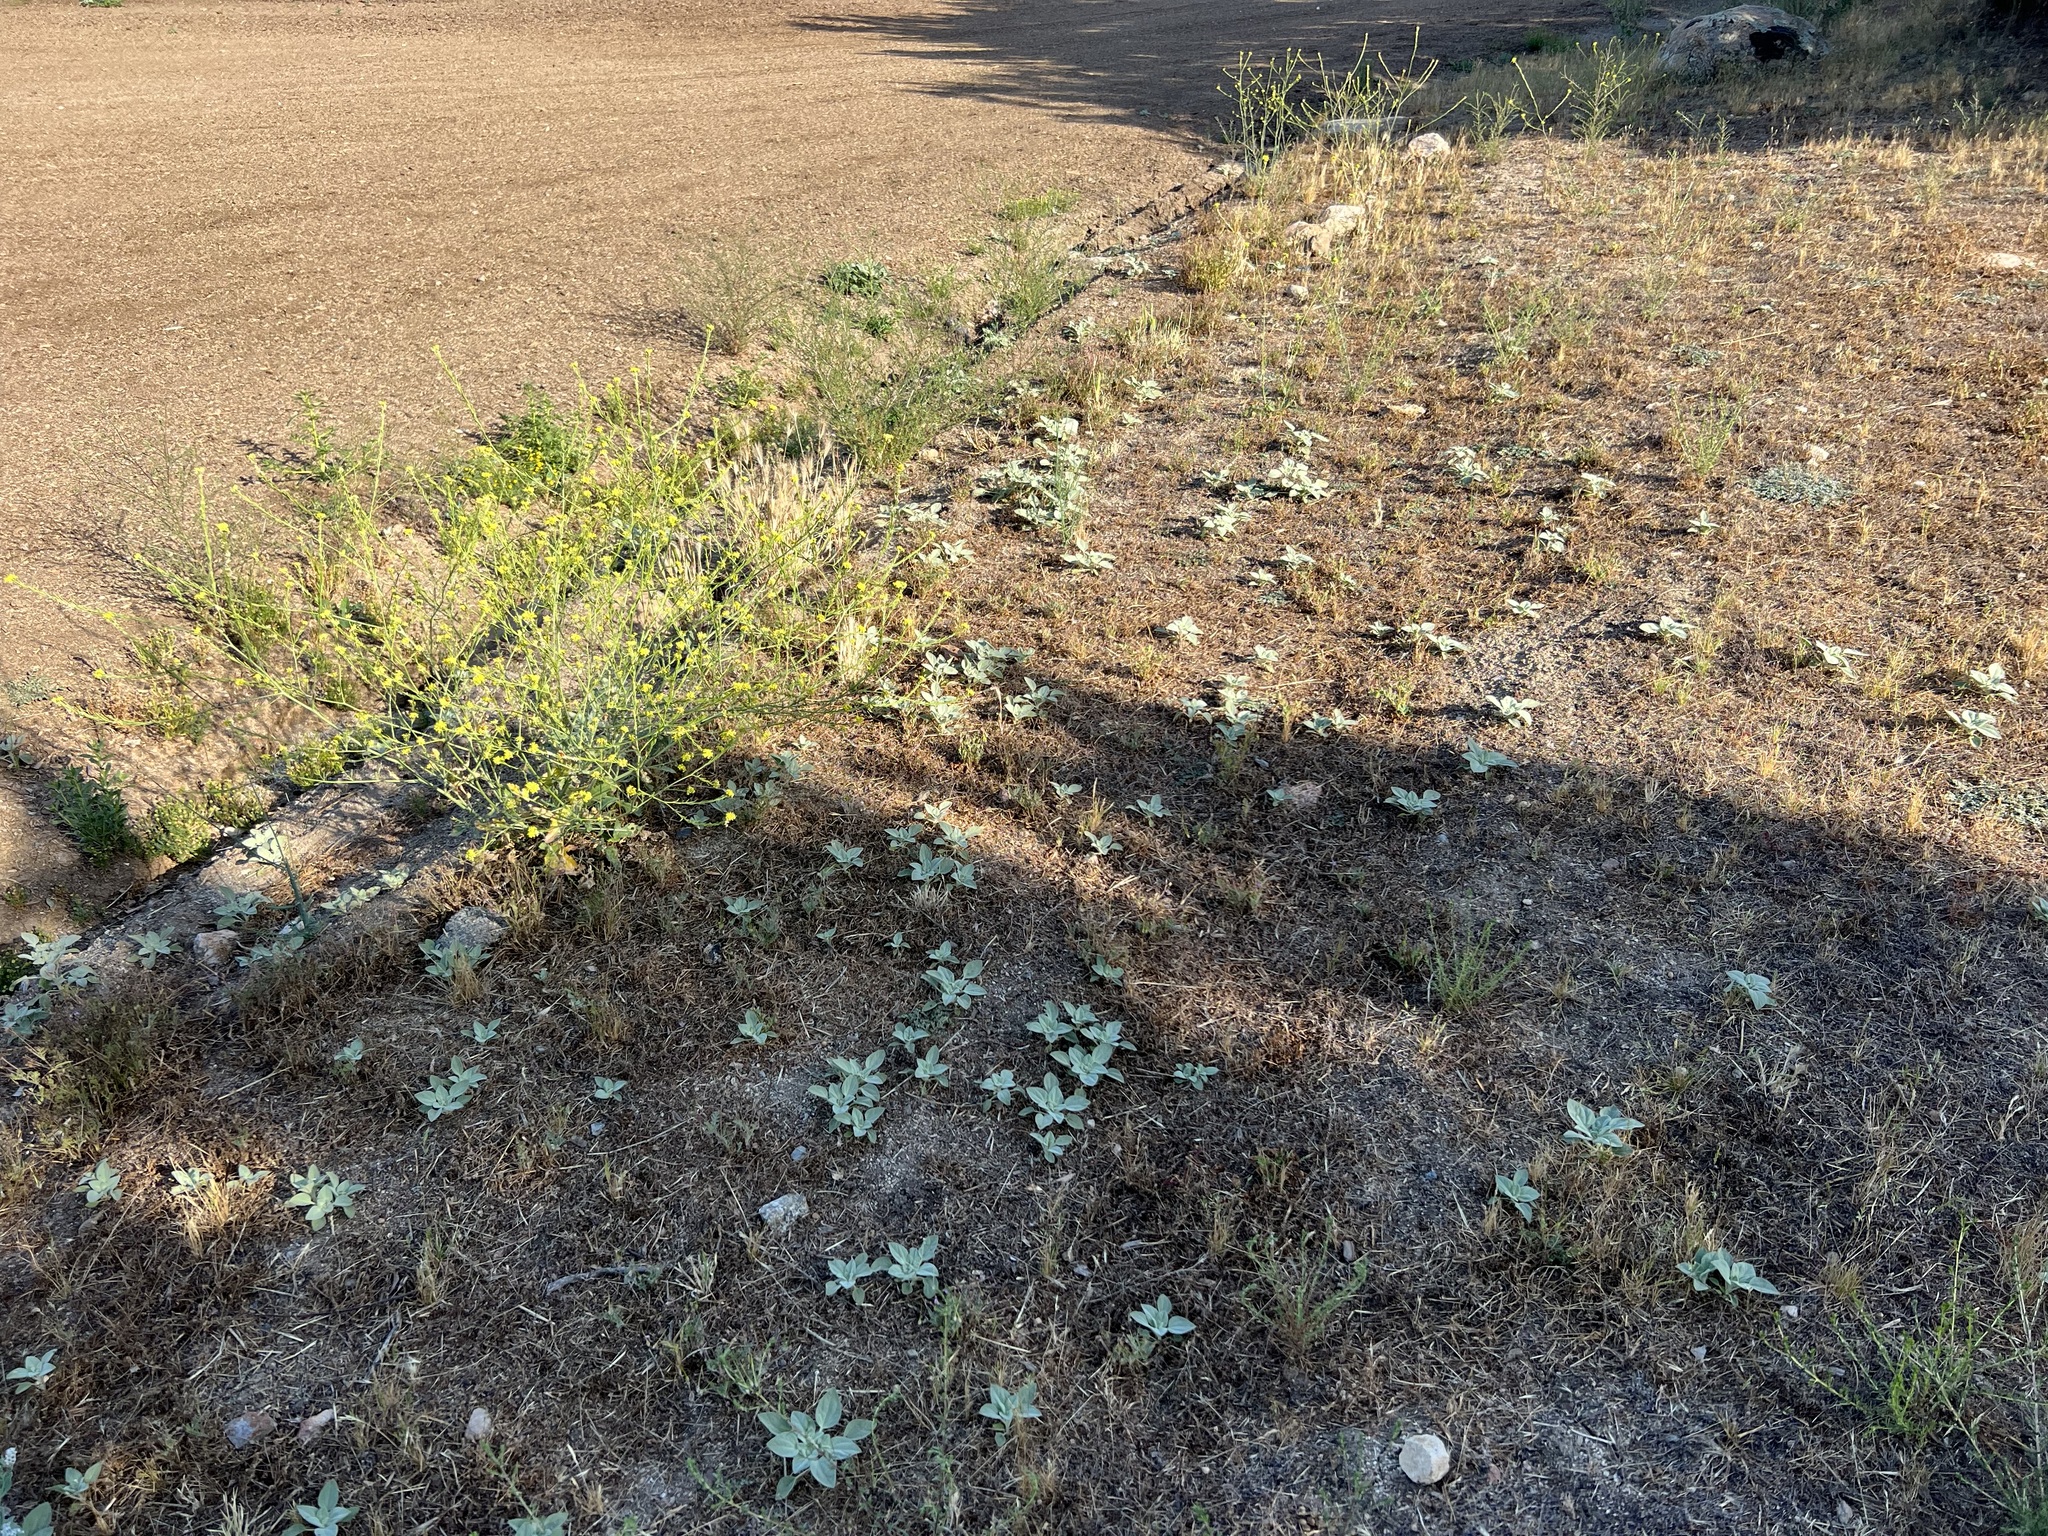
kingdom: Plantae
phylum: Tracheophyta
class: Magnoliopsida
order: Malpighiales
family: Euphorbiaceae
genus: Croton
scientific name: Croton setiger
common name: Dove weed
